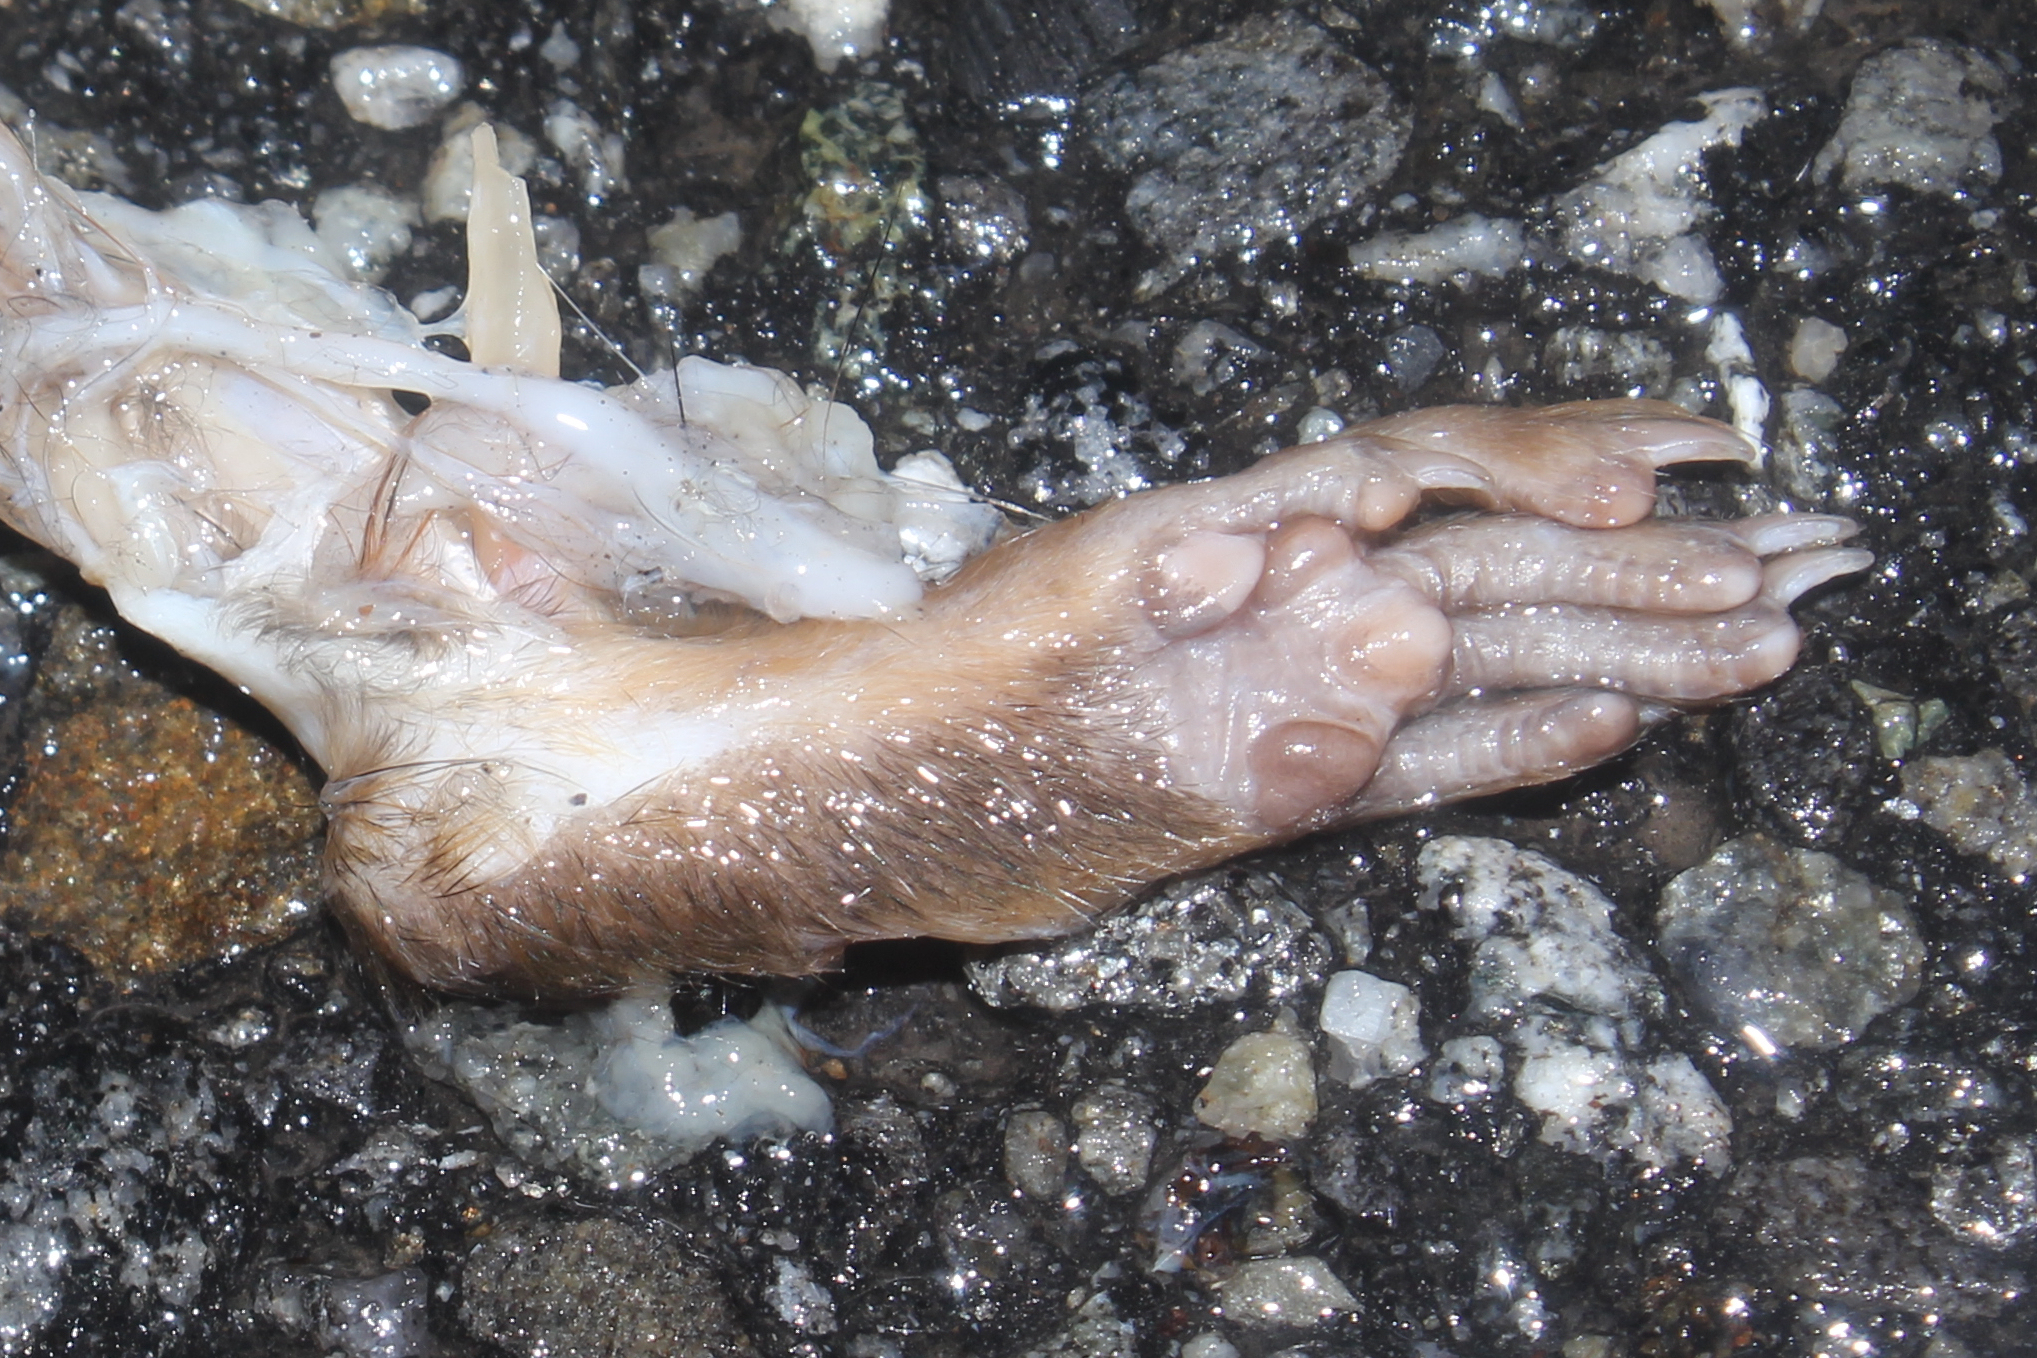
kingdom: Animalia
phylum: Chordata
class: Mammalia
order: Rodentia
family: Sciuridae
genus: Tamias
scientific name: Tamias striatus
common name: Eastern chipmunk
